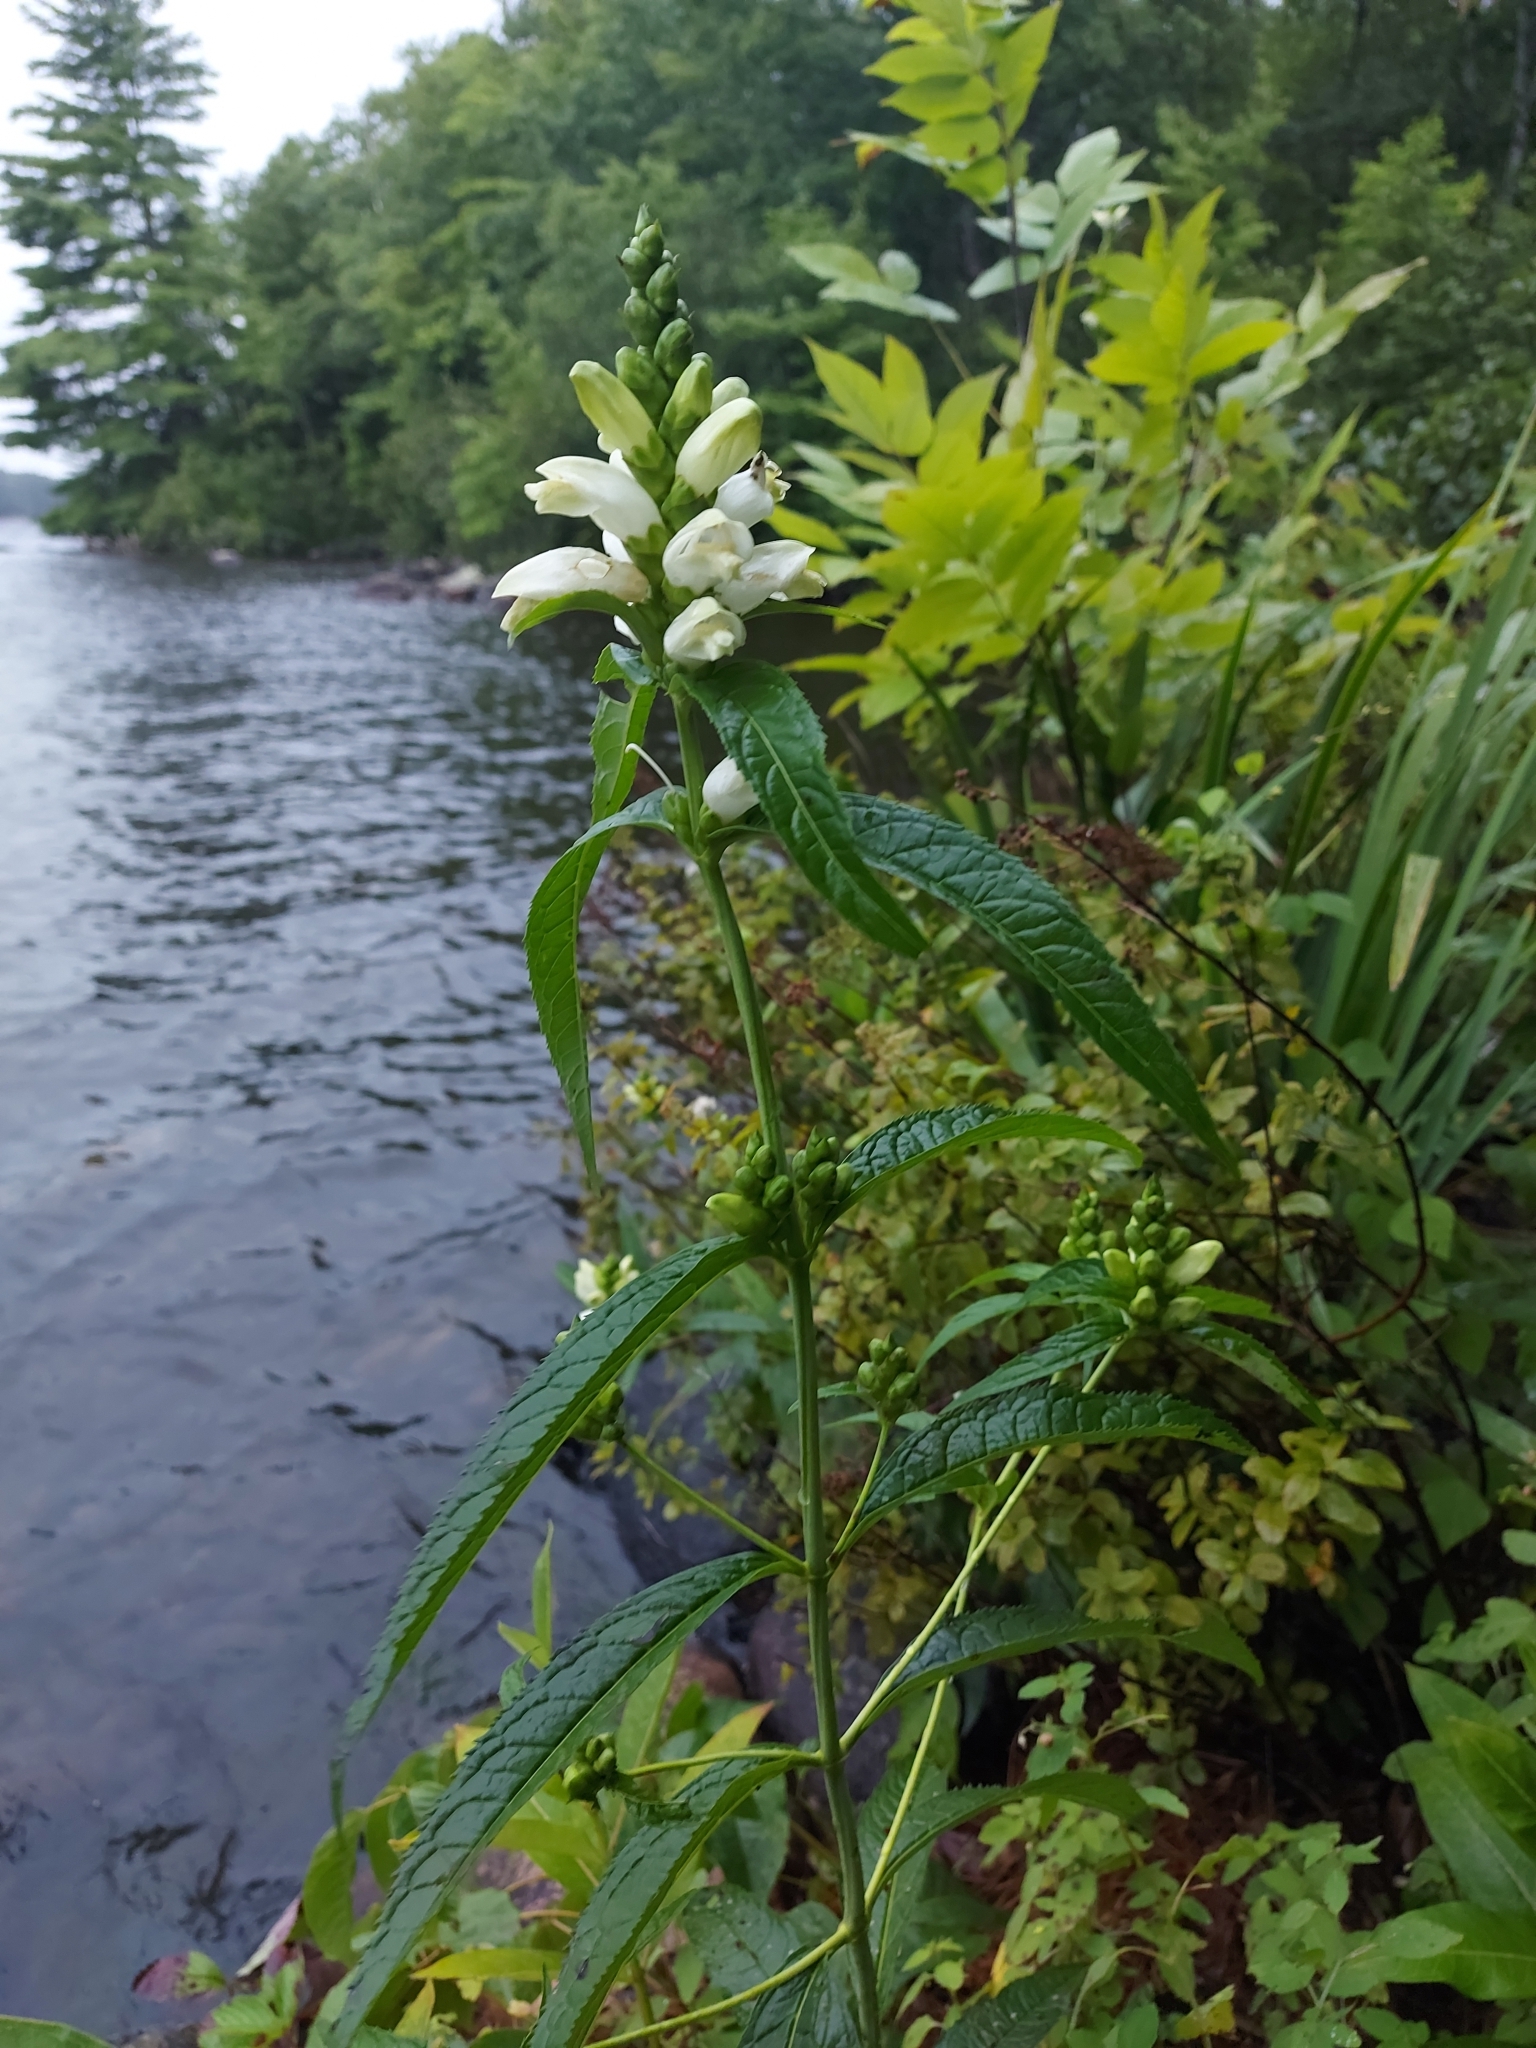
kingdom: Plantae
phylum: Tracheophyta
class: Magnoliopsida
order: Lamiales
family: Plantaginaceae
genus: Chelone
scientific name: Chelone glabra
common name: Snakehead
